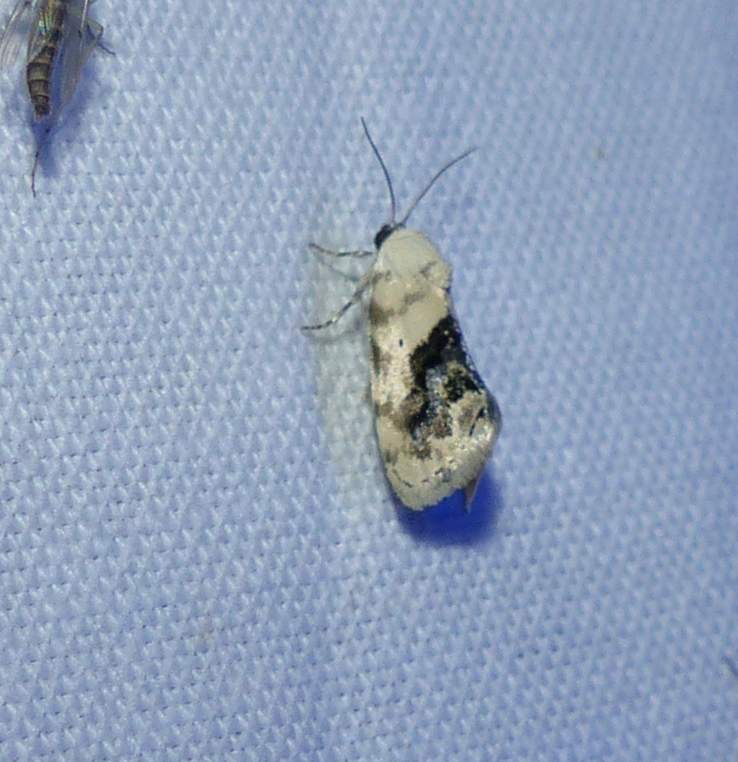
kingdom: Animalia
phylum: Arthropoda
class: Insecta
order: Lepidoptera
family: Noctuidae
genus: Acontia
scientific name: Acontia erastrioides
